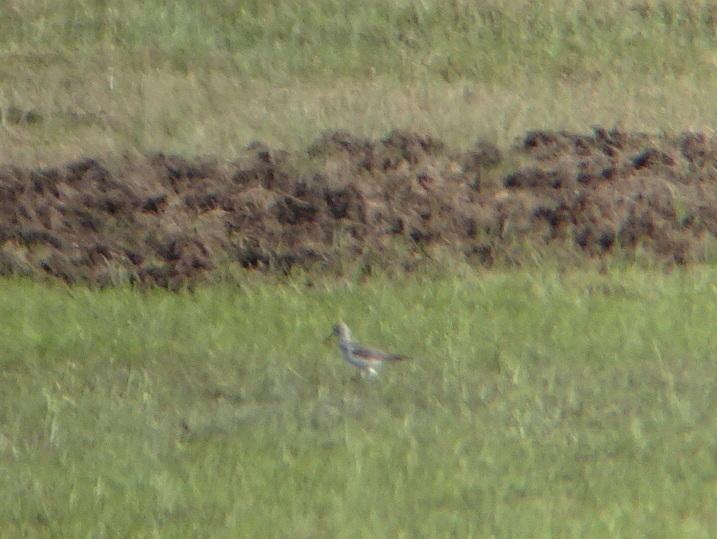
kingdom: Animalia
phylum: Chordata
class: Aves
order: Charadriiformes
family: Scolopacidae
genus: Tringa
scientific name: Tringa nebularia
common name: Common greenshank
